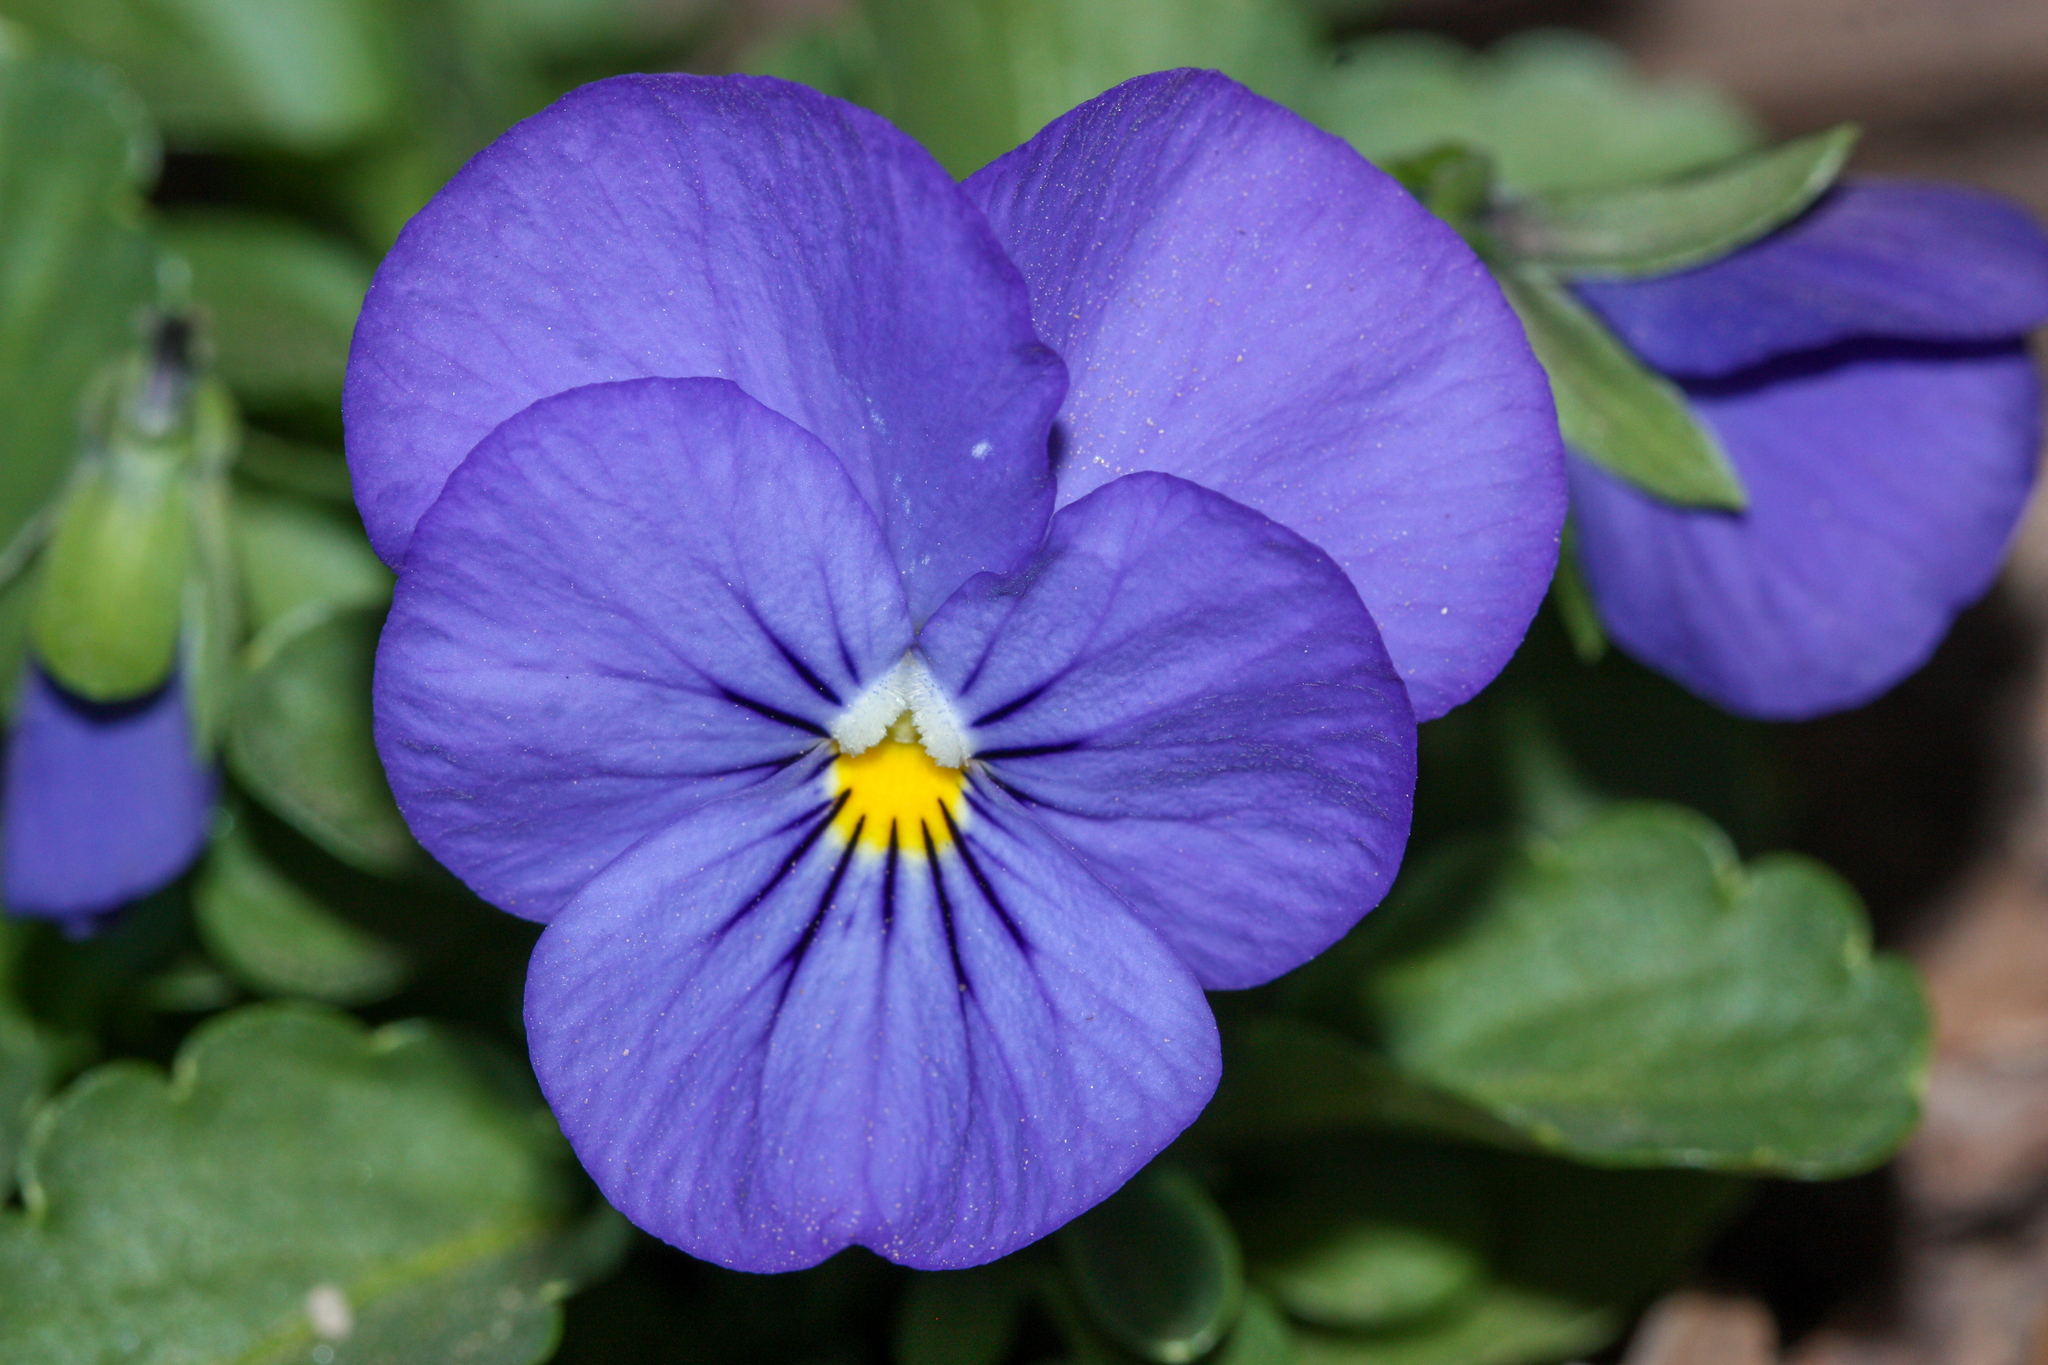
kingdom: Plantae
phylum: Tracheophyta
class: Magnoliopsida
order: Malpighiales
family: Violaceae
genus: Viola
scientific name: Viola williamsii
